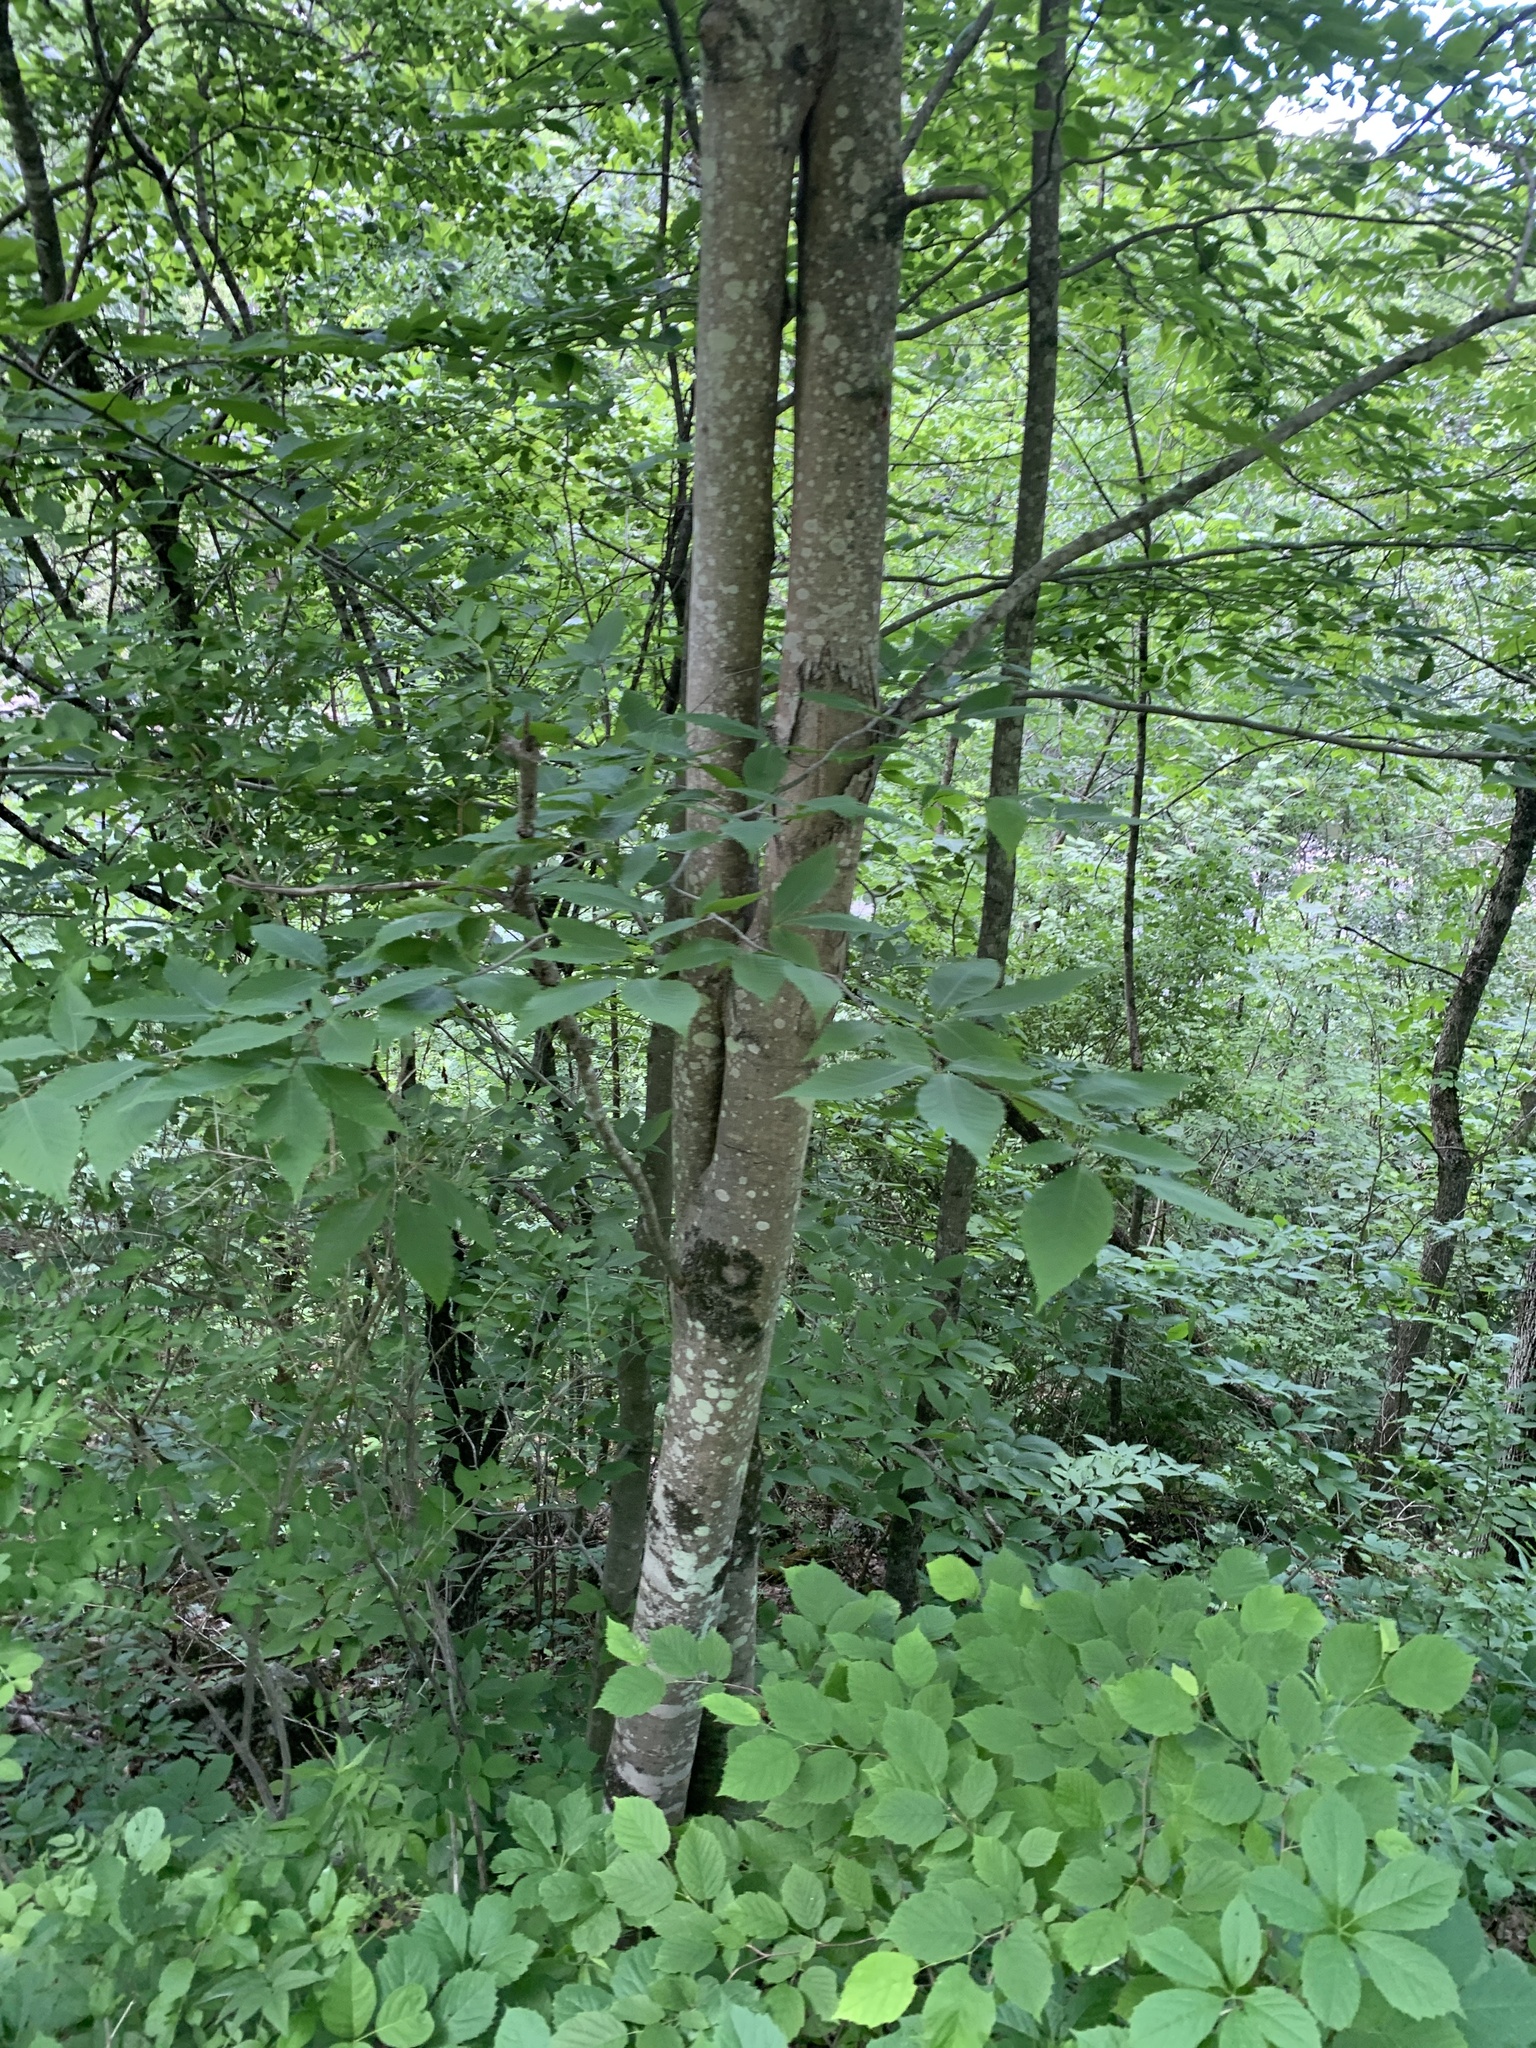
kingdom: Plantae
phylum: Tracheophyta
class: Magnoliopsida
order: Fagales
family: Fagaceae
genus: Fagus
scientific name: Fagus grandifolia
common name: American beech
